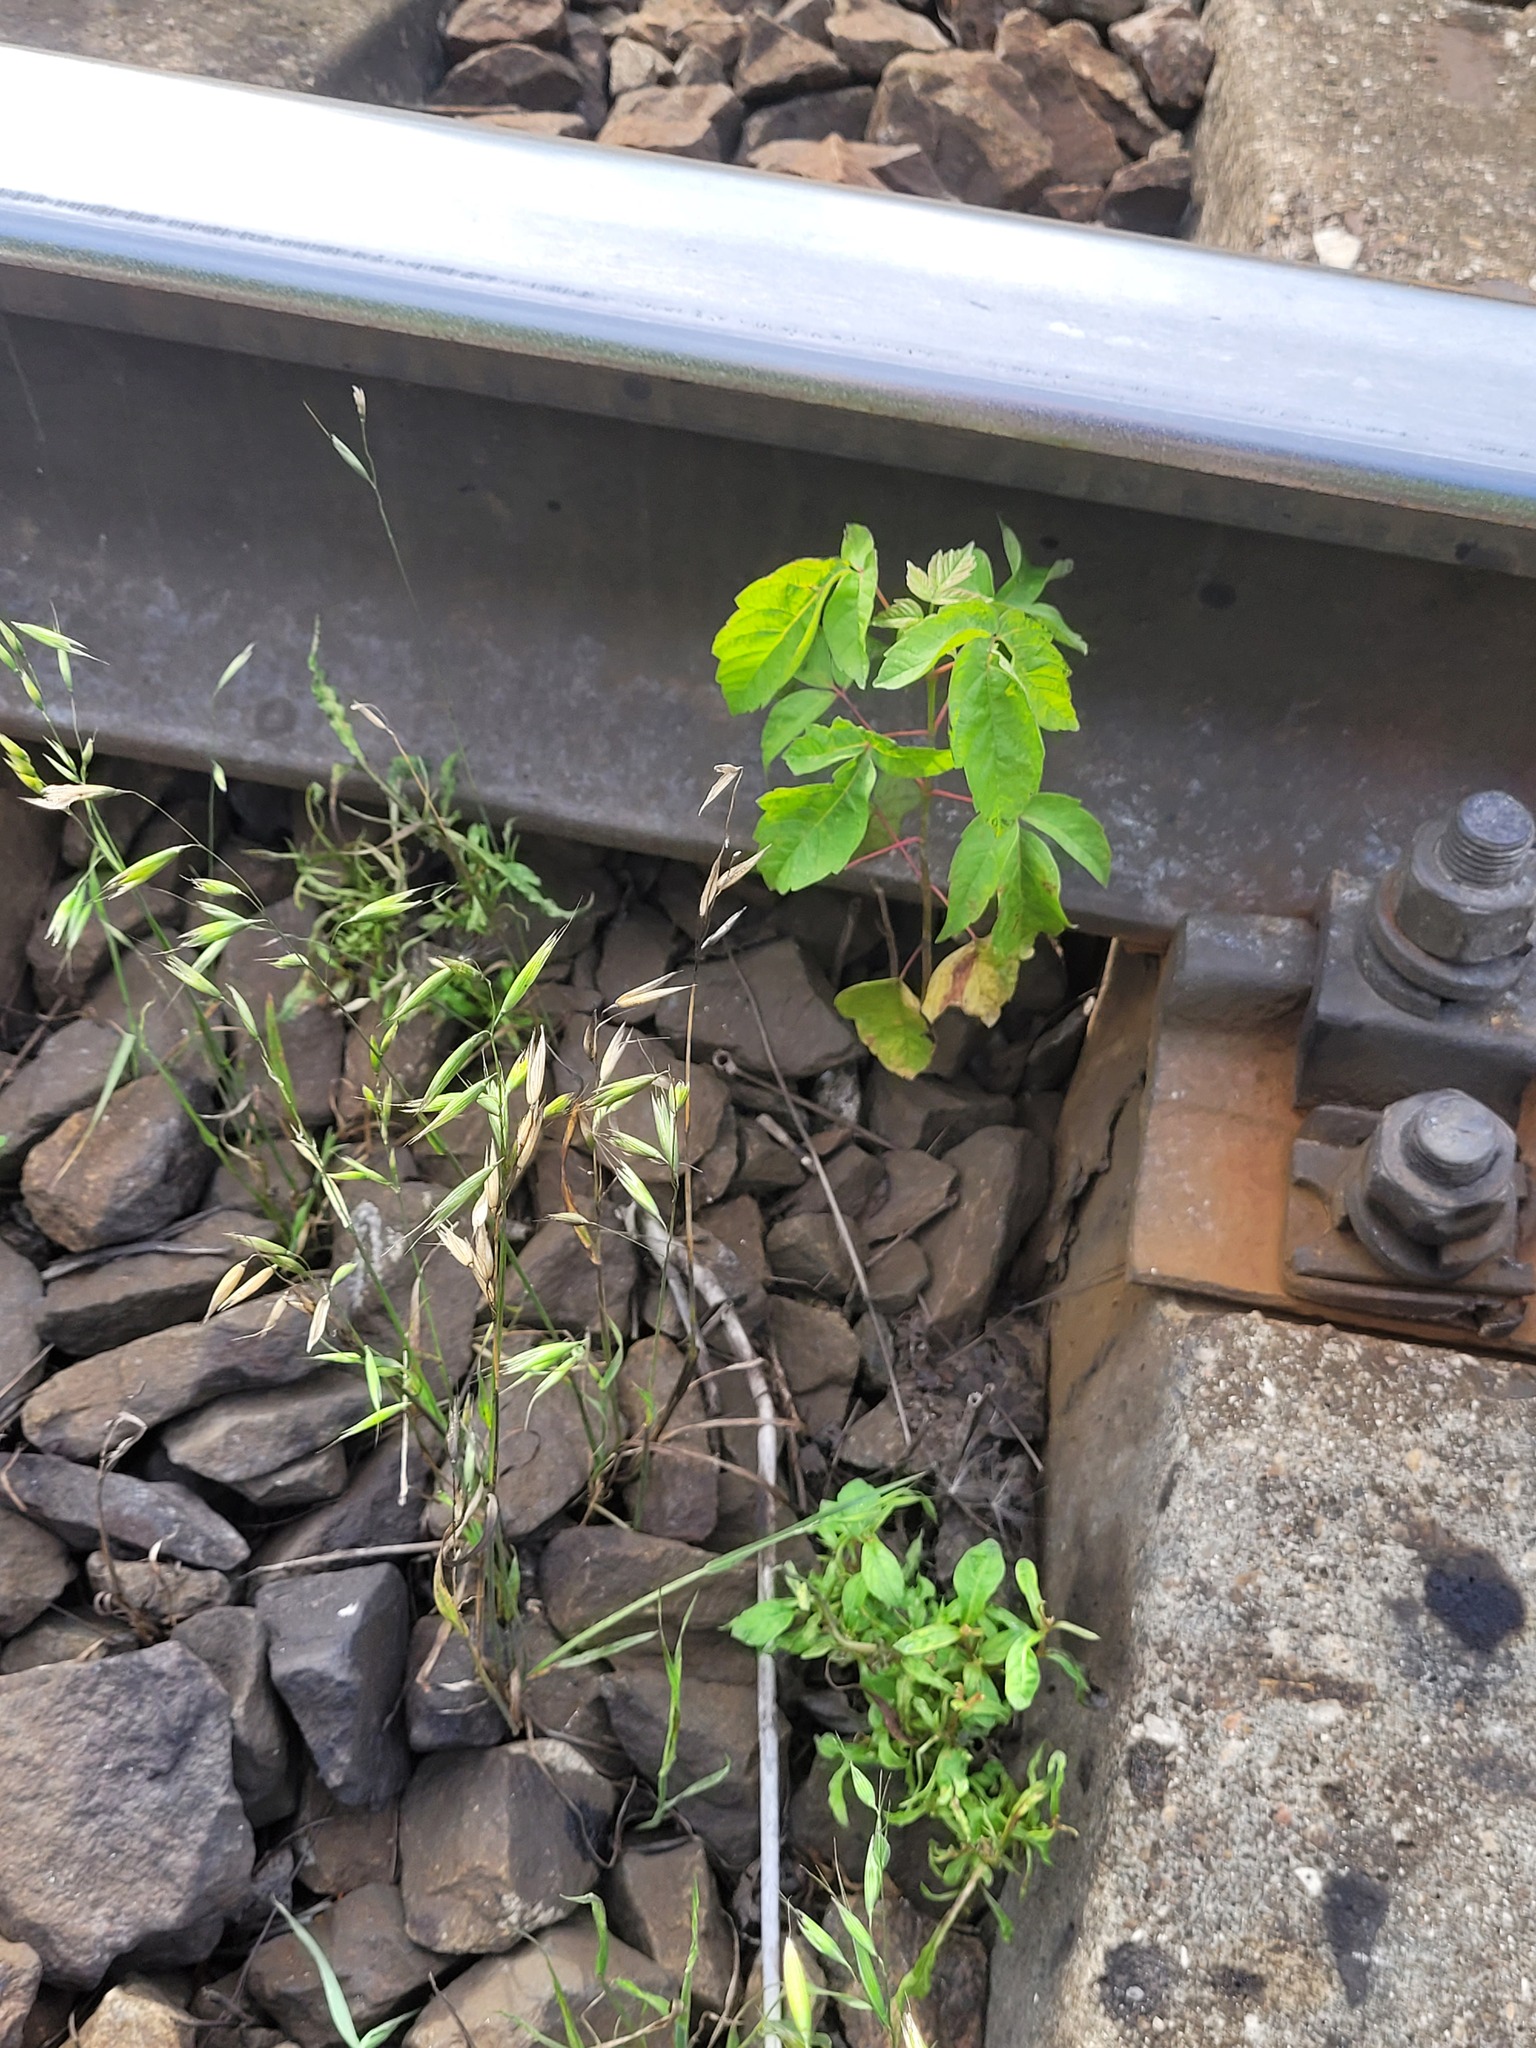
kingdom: Plantae
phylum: Tracheophyta
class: Liliopsida
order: Poales
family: Poaceae
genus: Avena
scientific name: Avena fatua
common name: Wild oat
